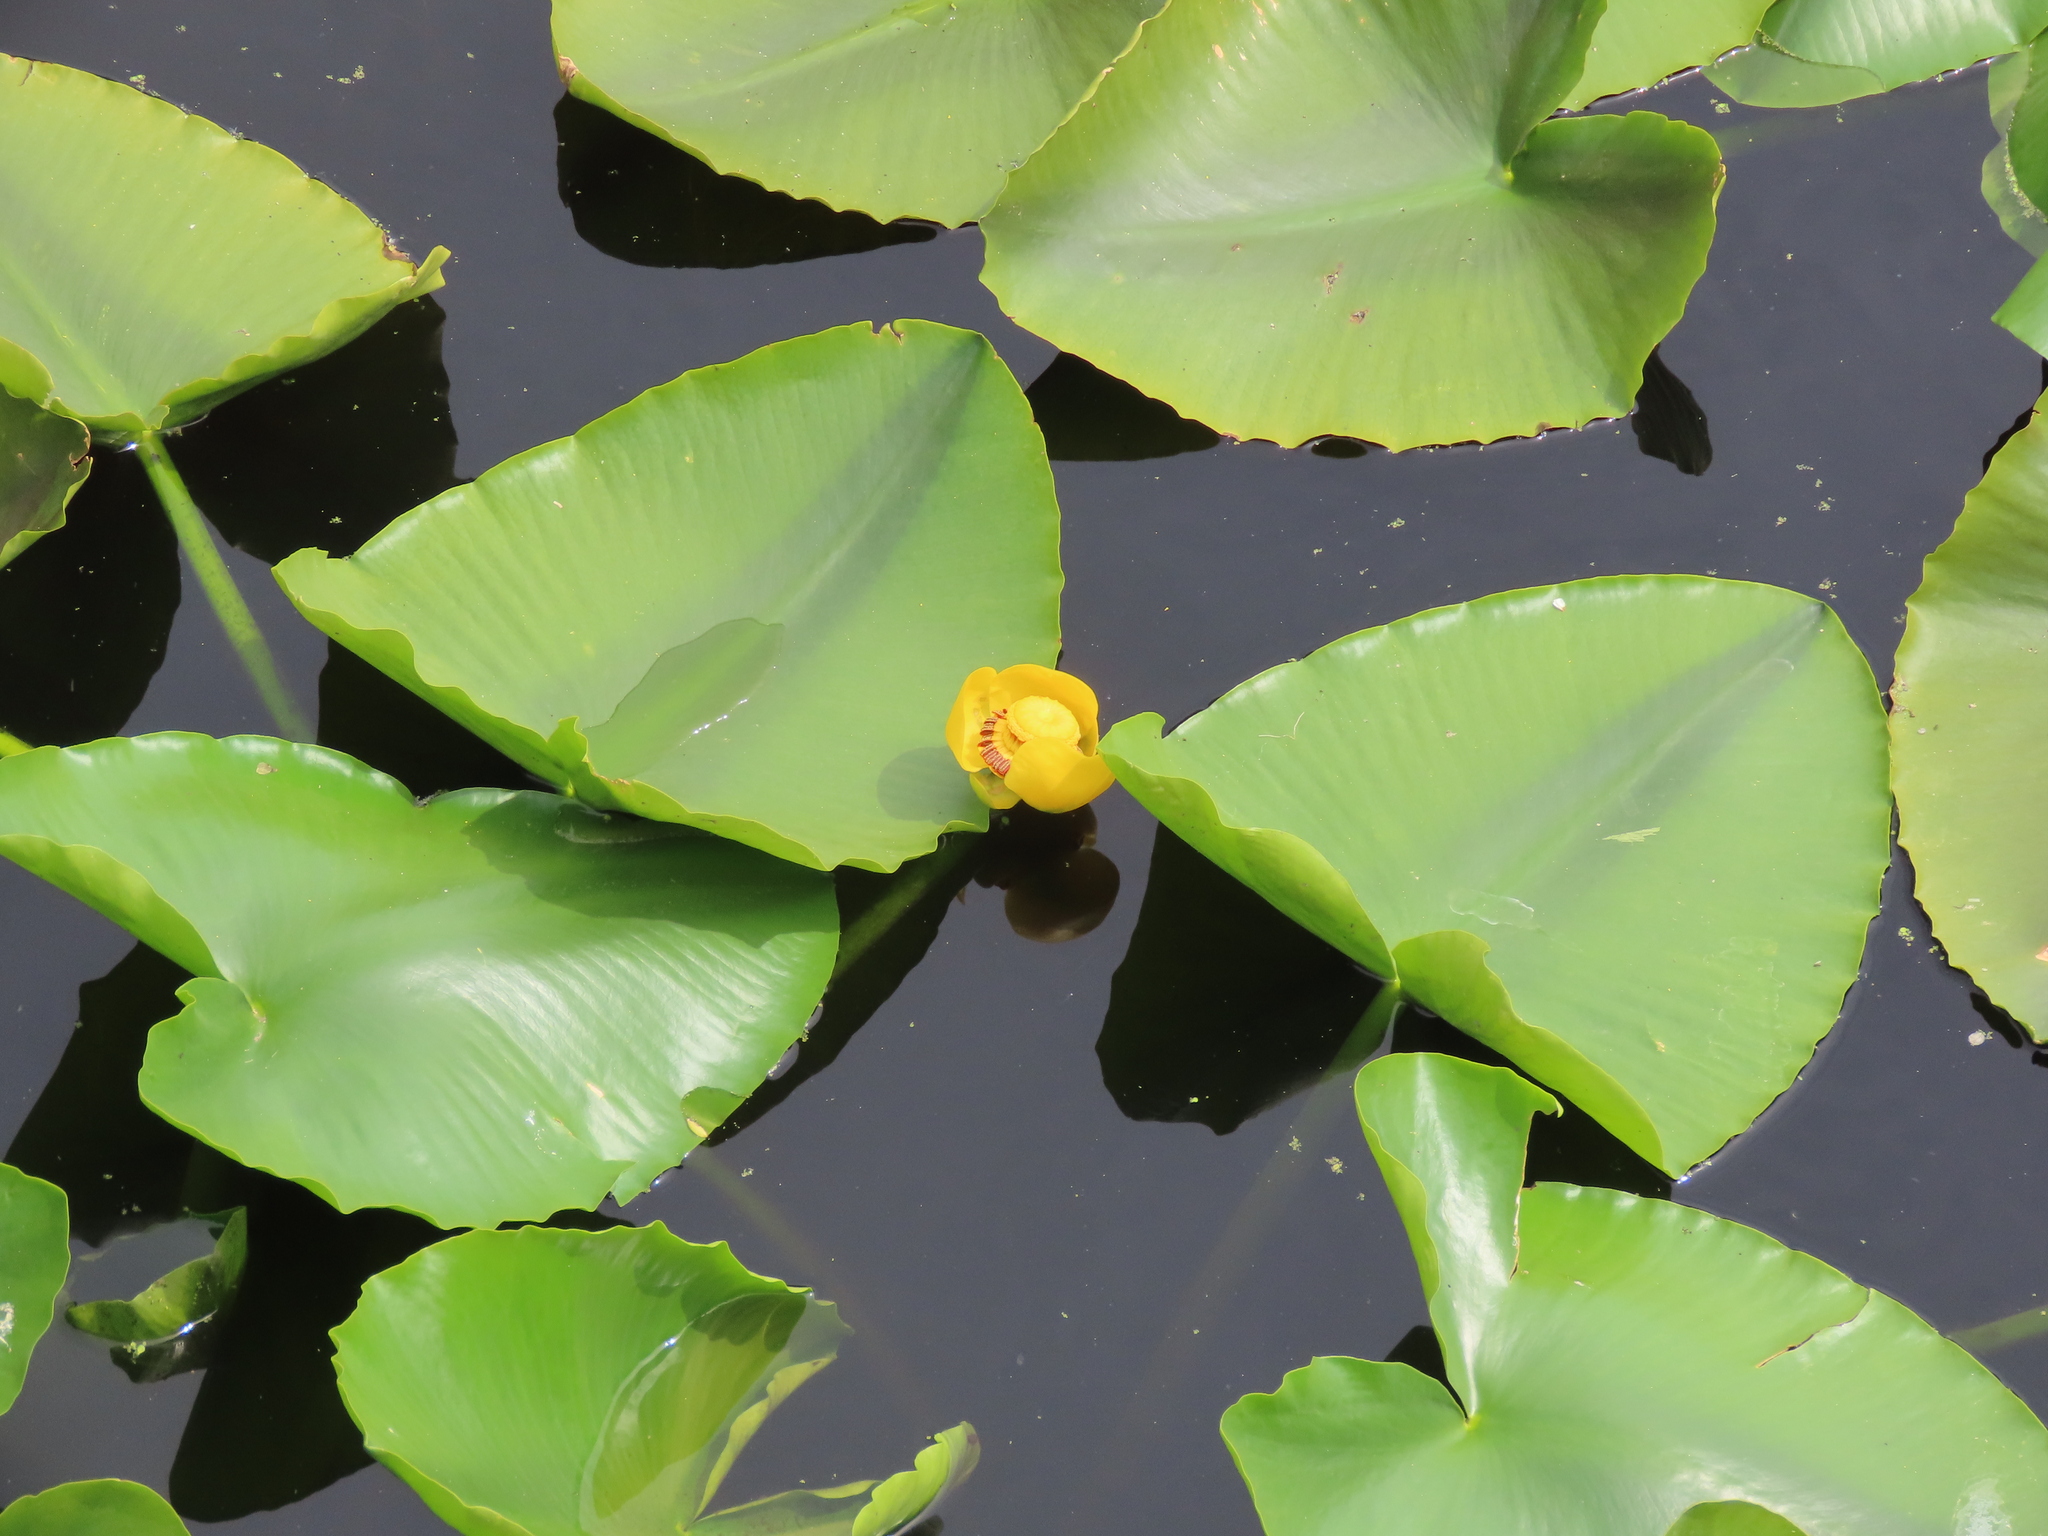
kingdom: Plantae
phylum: Tracheophyta
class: Magnoliopsida
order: Nymphaeales
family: Nymphaeaceae
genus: Nuphar
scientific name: Nuphar polysepala
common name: Rocky mountain cow-lily
